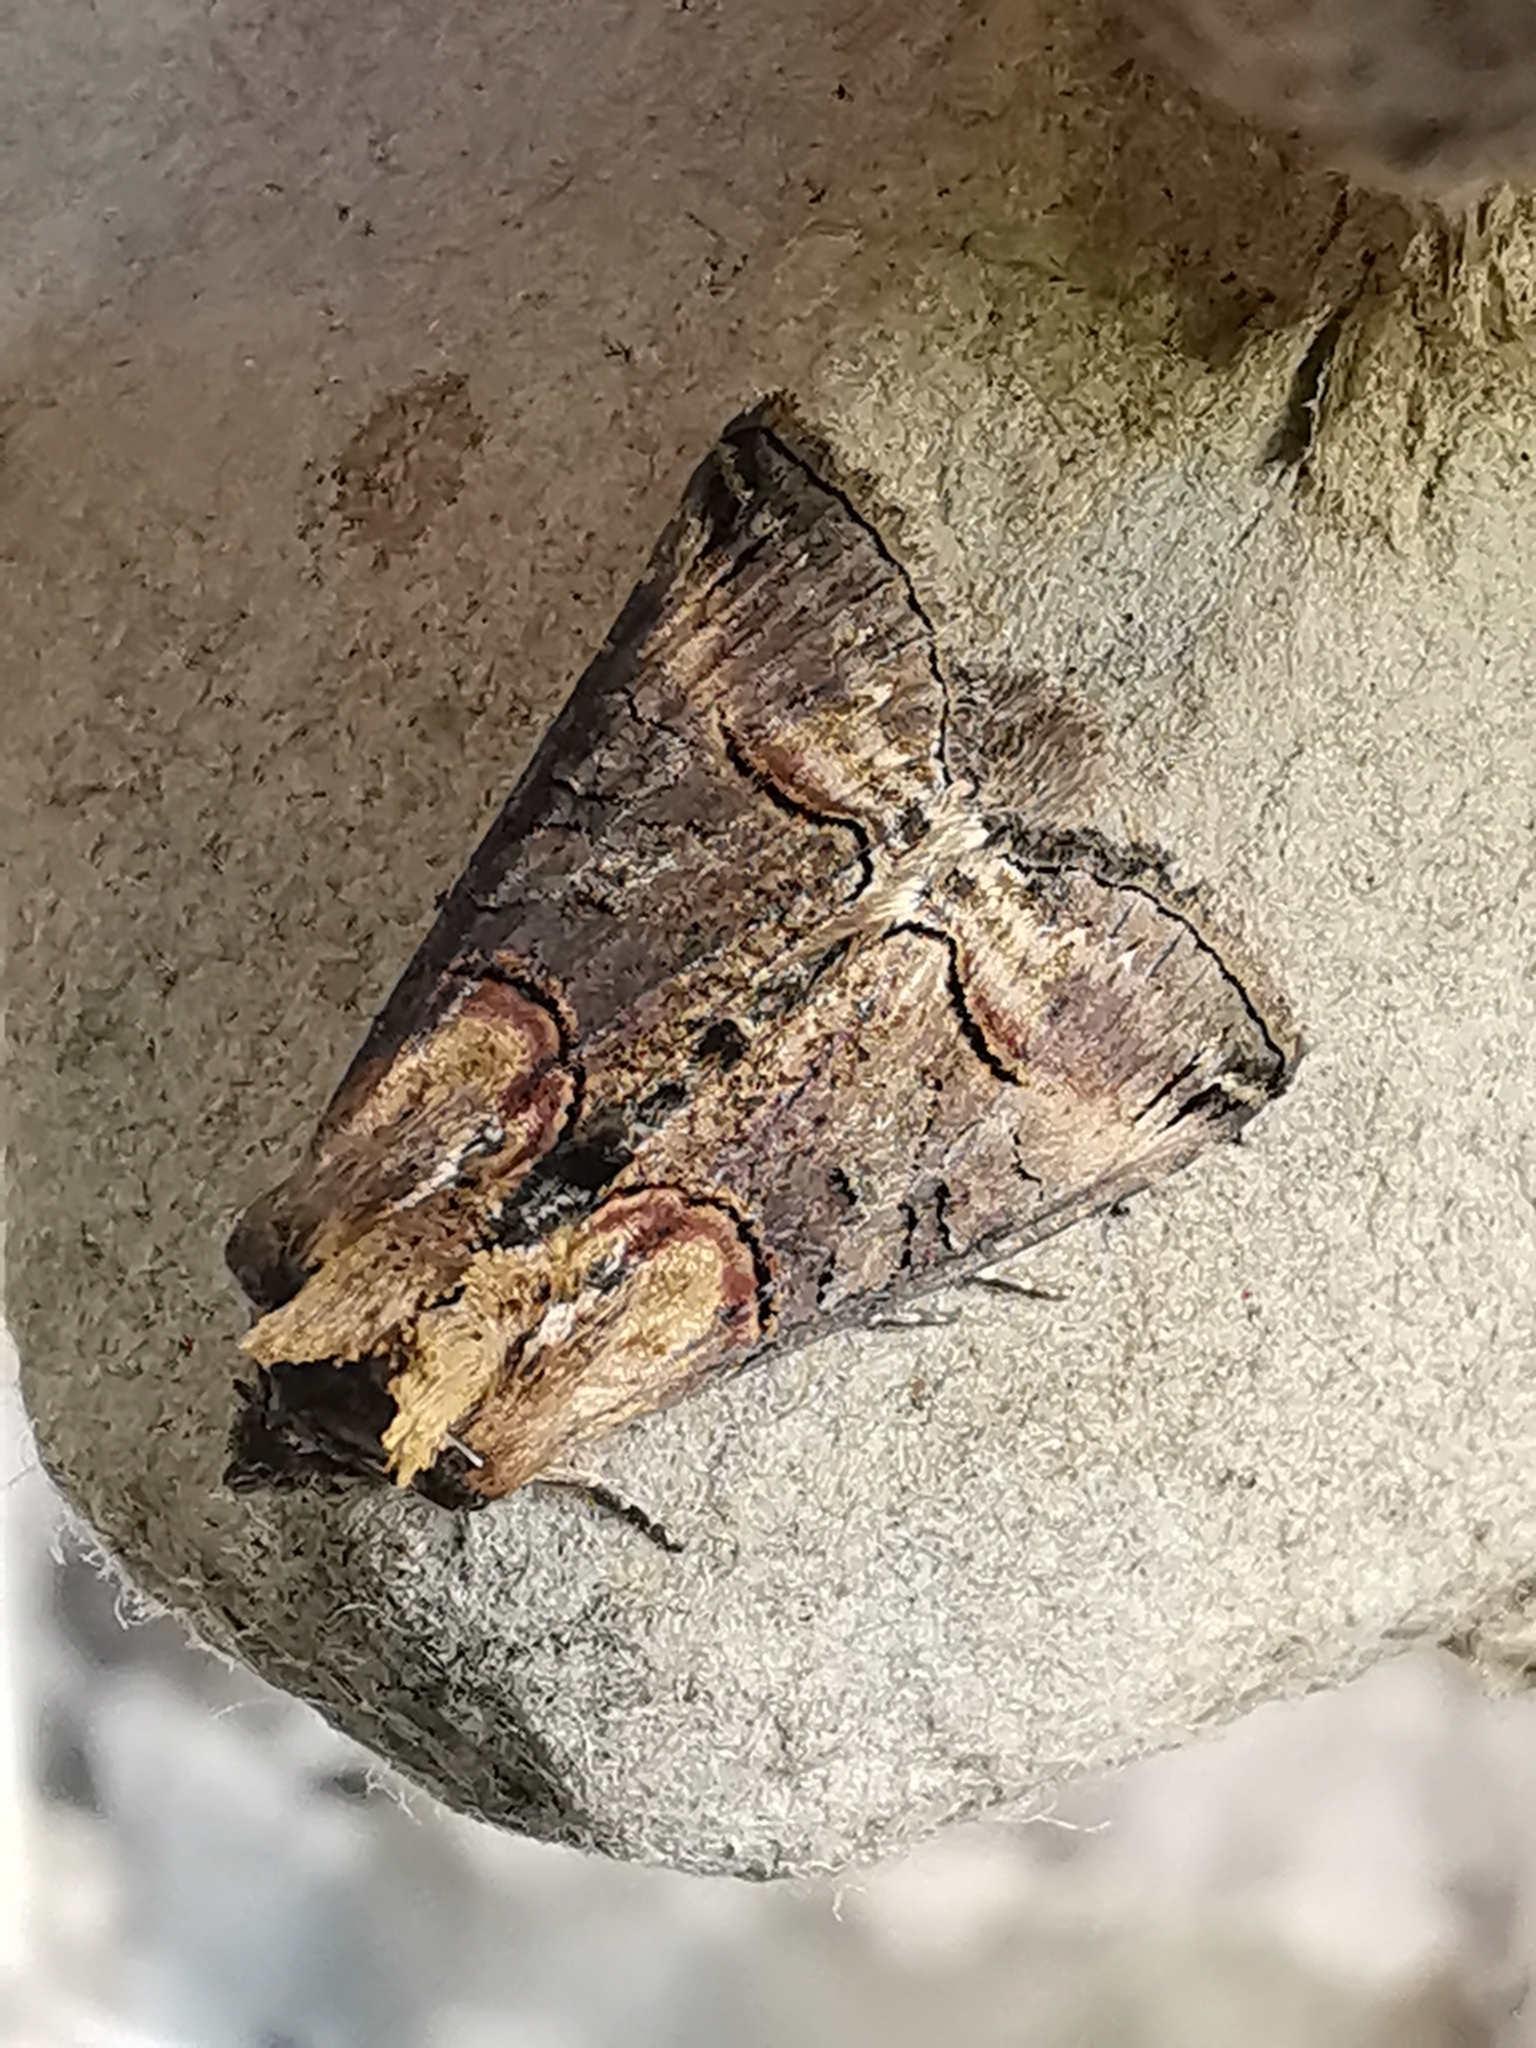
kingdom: Animalia
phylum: Arthropoda
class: Insecta
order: Lepidoptera
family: Noctuidae
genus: Abrostola
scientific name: Abrostola tripartita
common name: Spectacle
